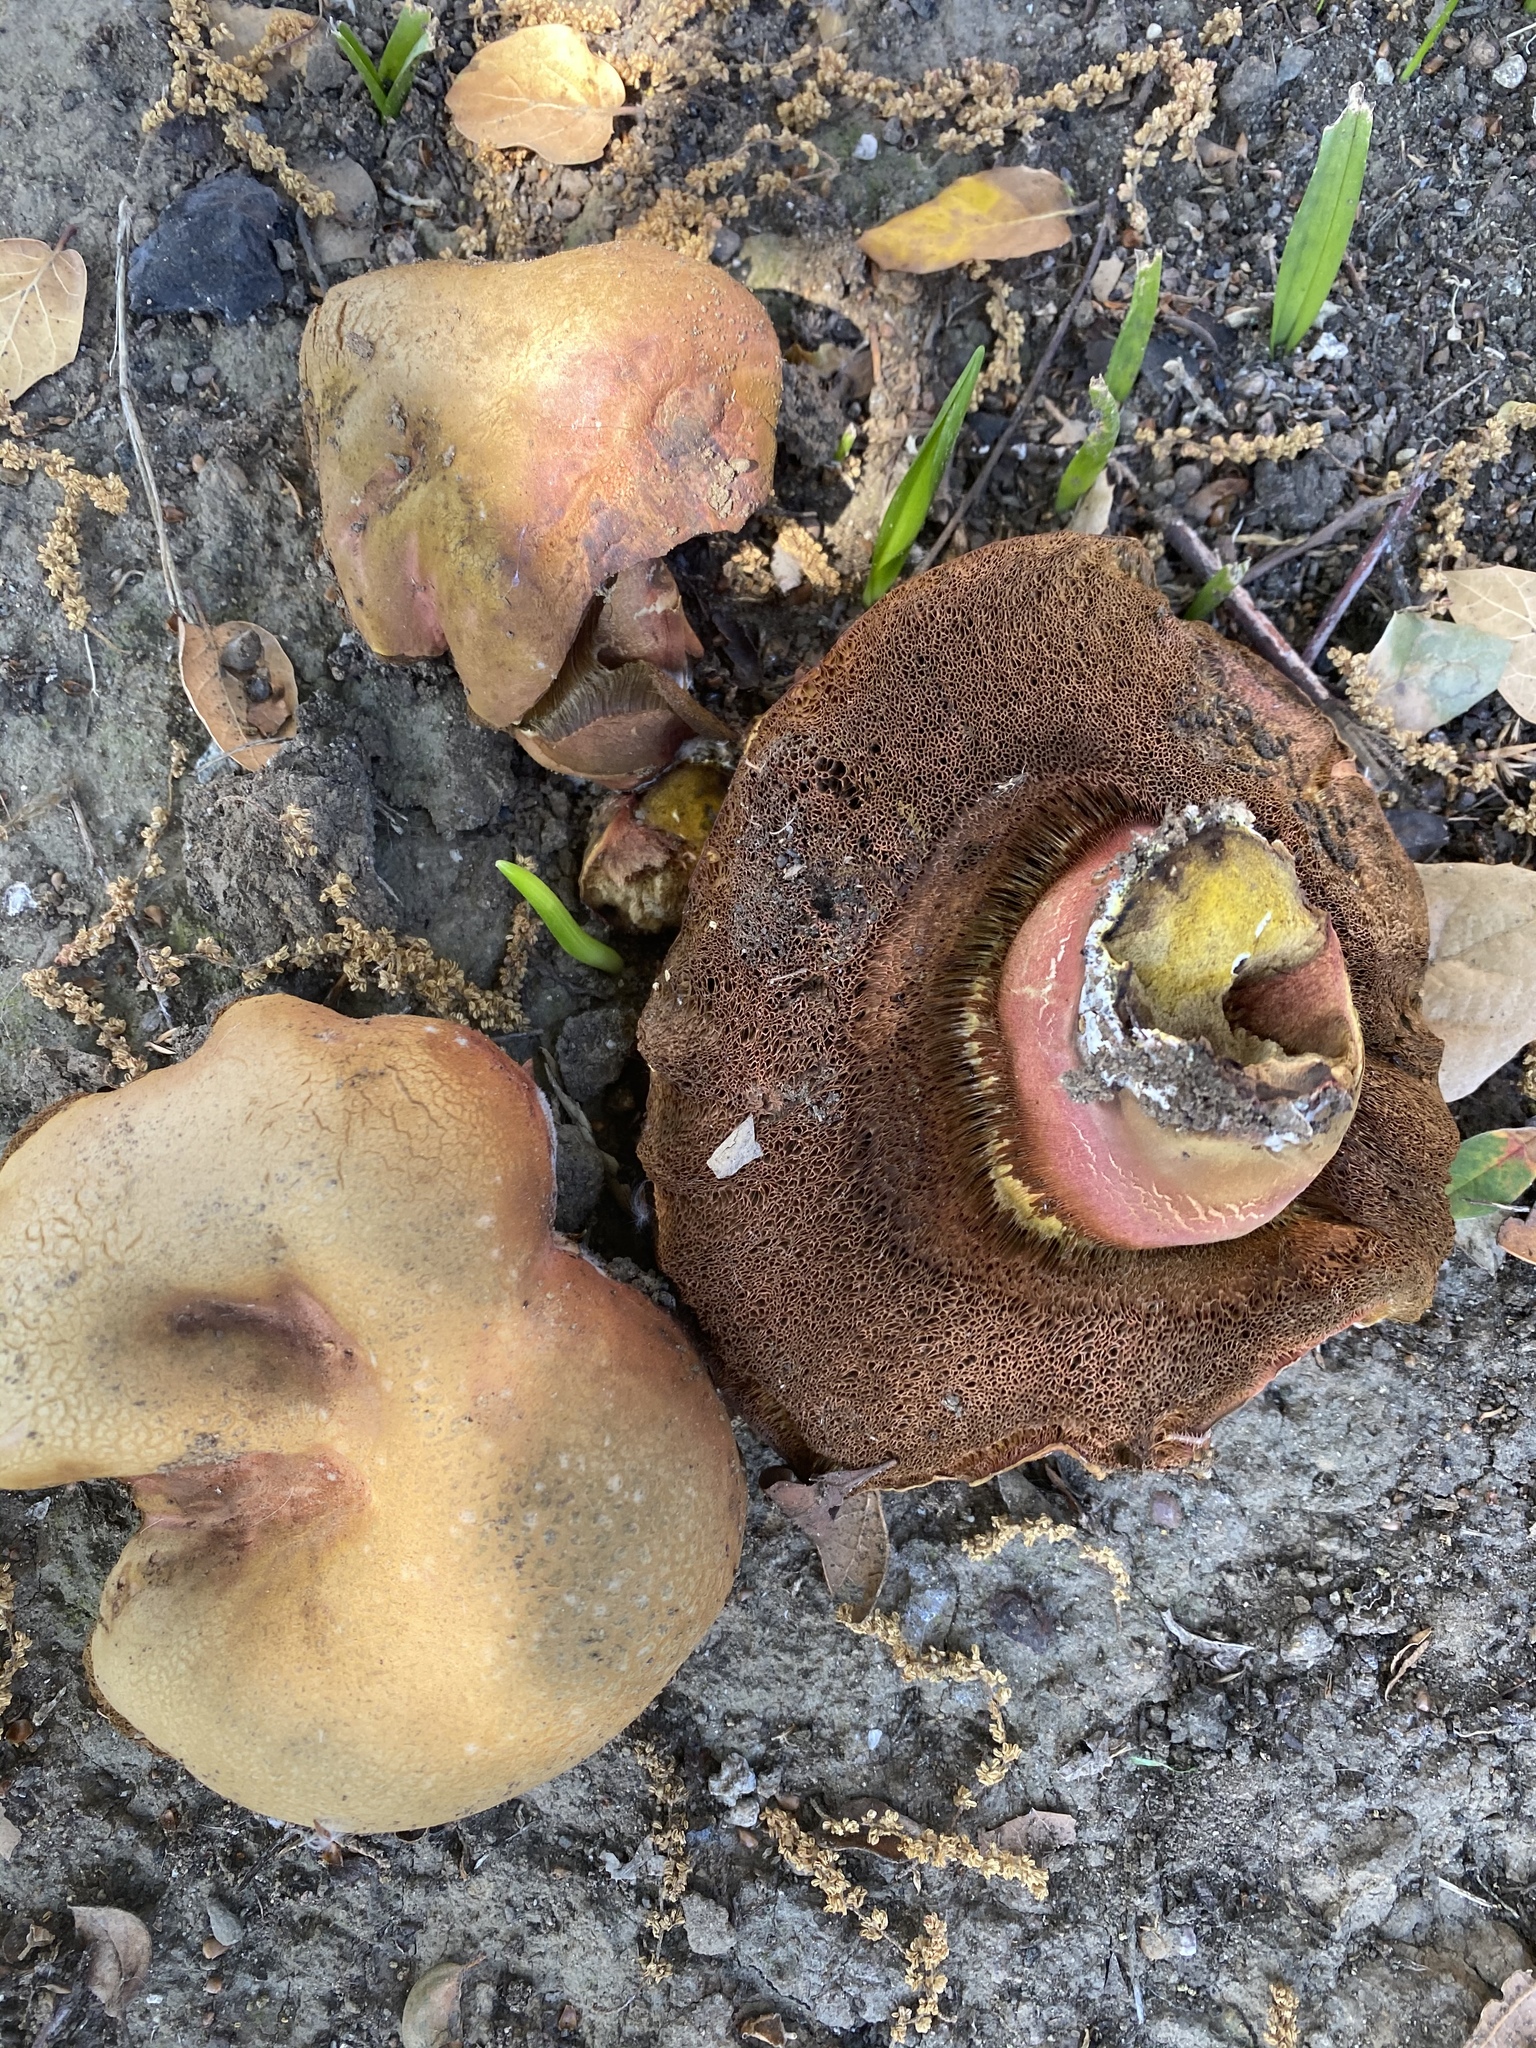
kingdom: Fungi
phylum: Basidiomycota
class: Agaricomycetes
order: Boletales
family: Boletaceae
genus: Suillellus
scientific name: Suillellus amygdalinus
